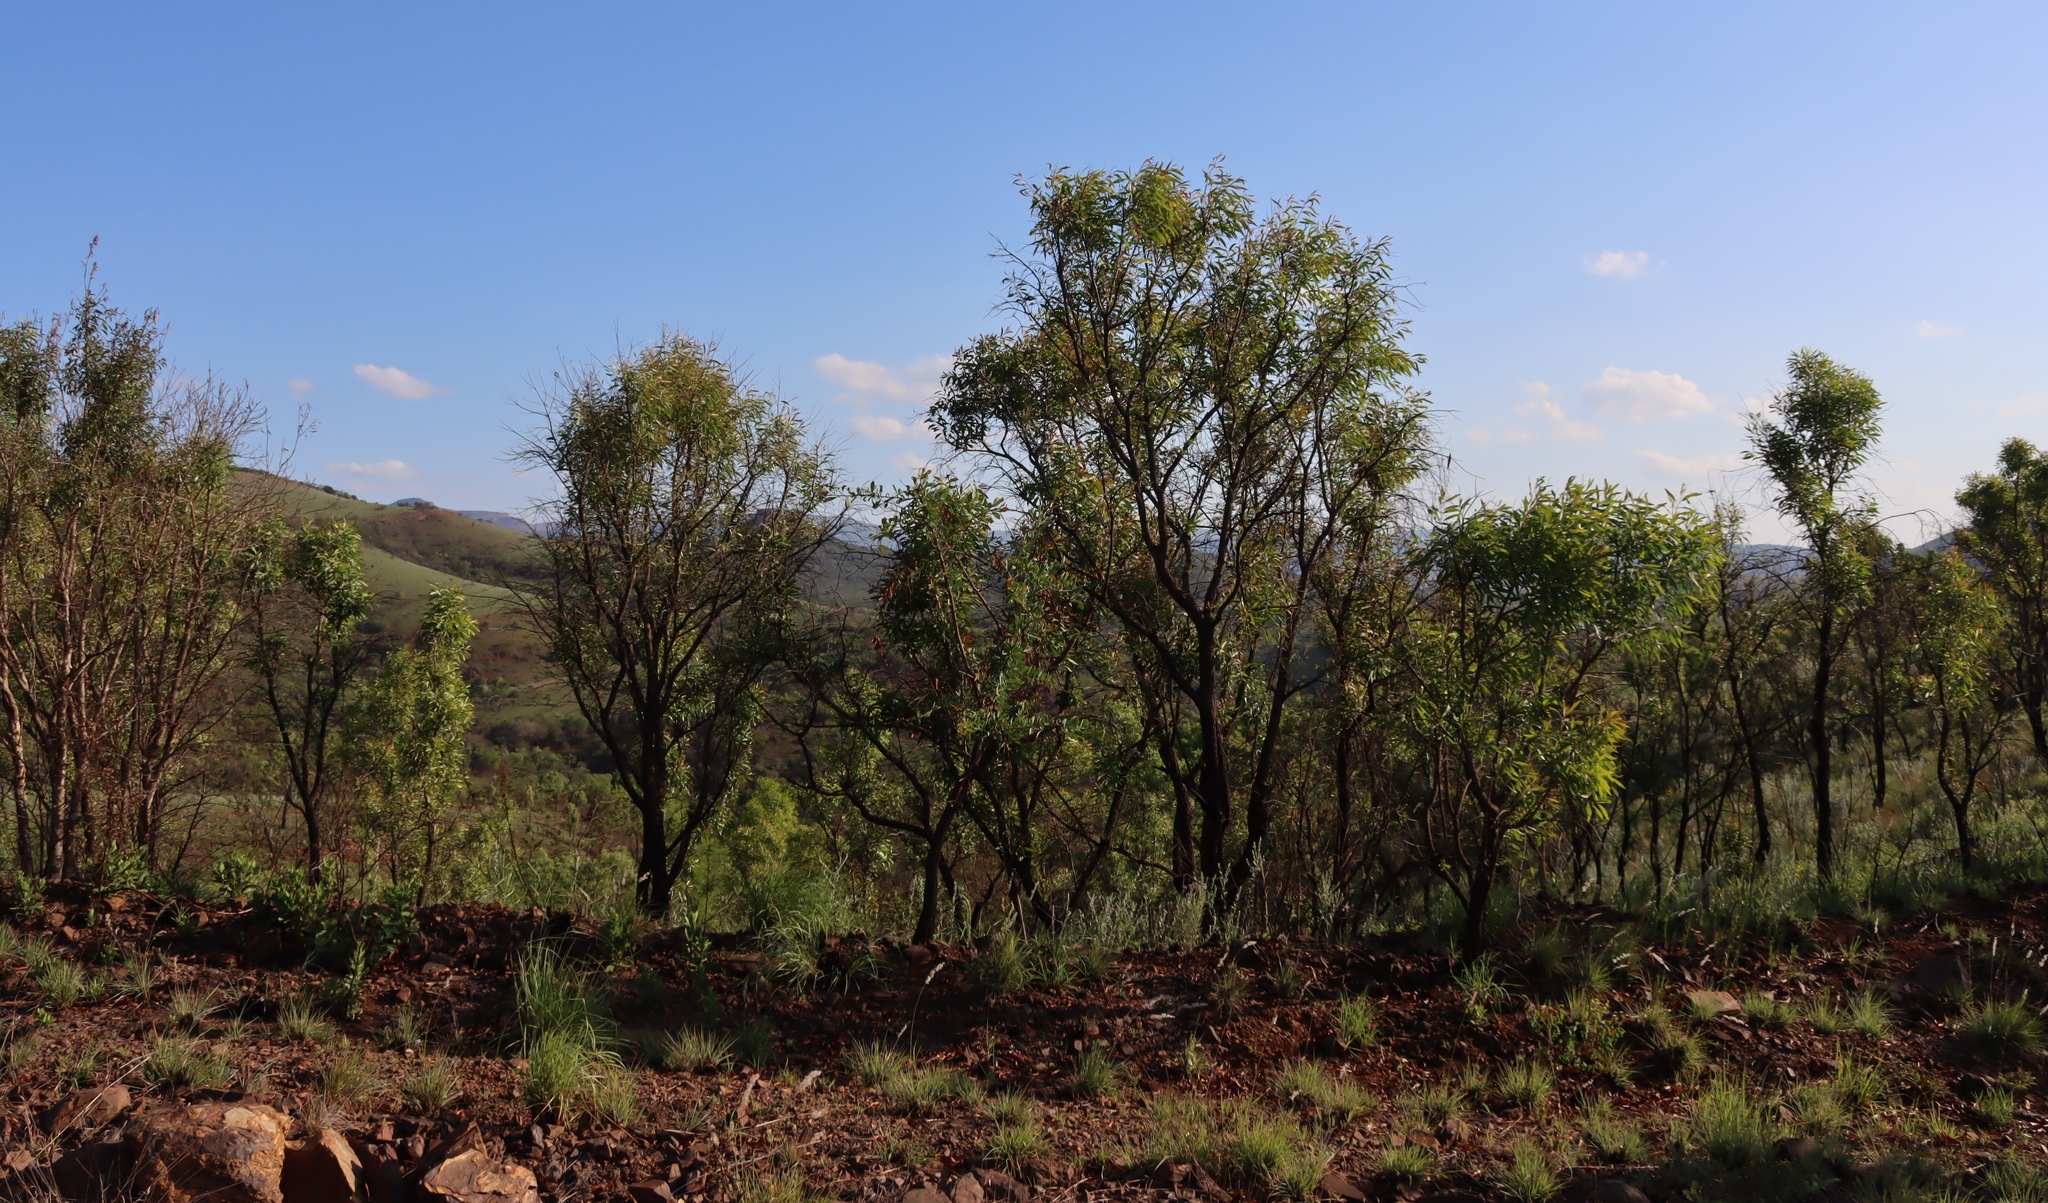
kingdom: Plantae
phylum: Tracheophyta
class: Magnoliopsida
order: Proteales
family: Proteaceae
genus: Faurea
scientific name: Faurea saligna
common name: African bean
